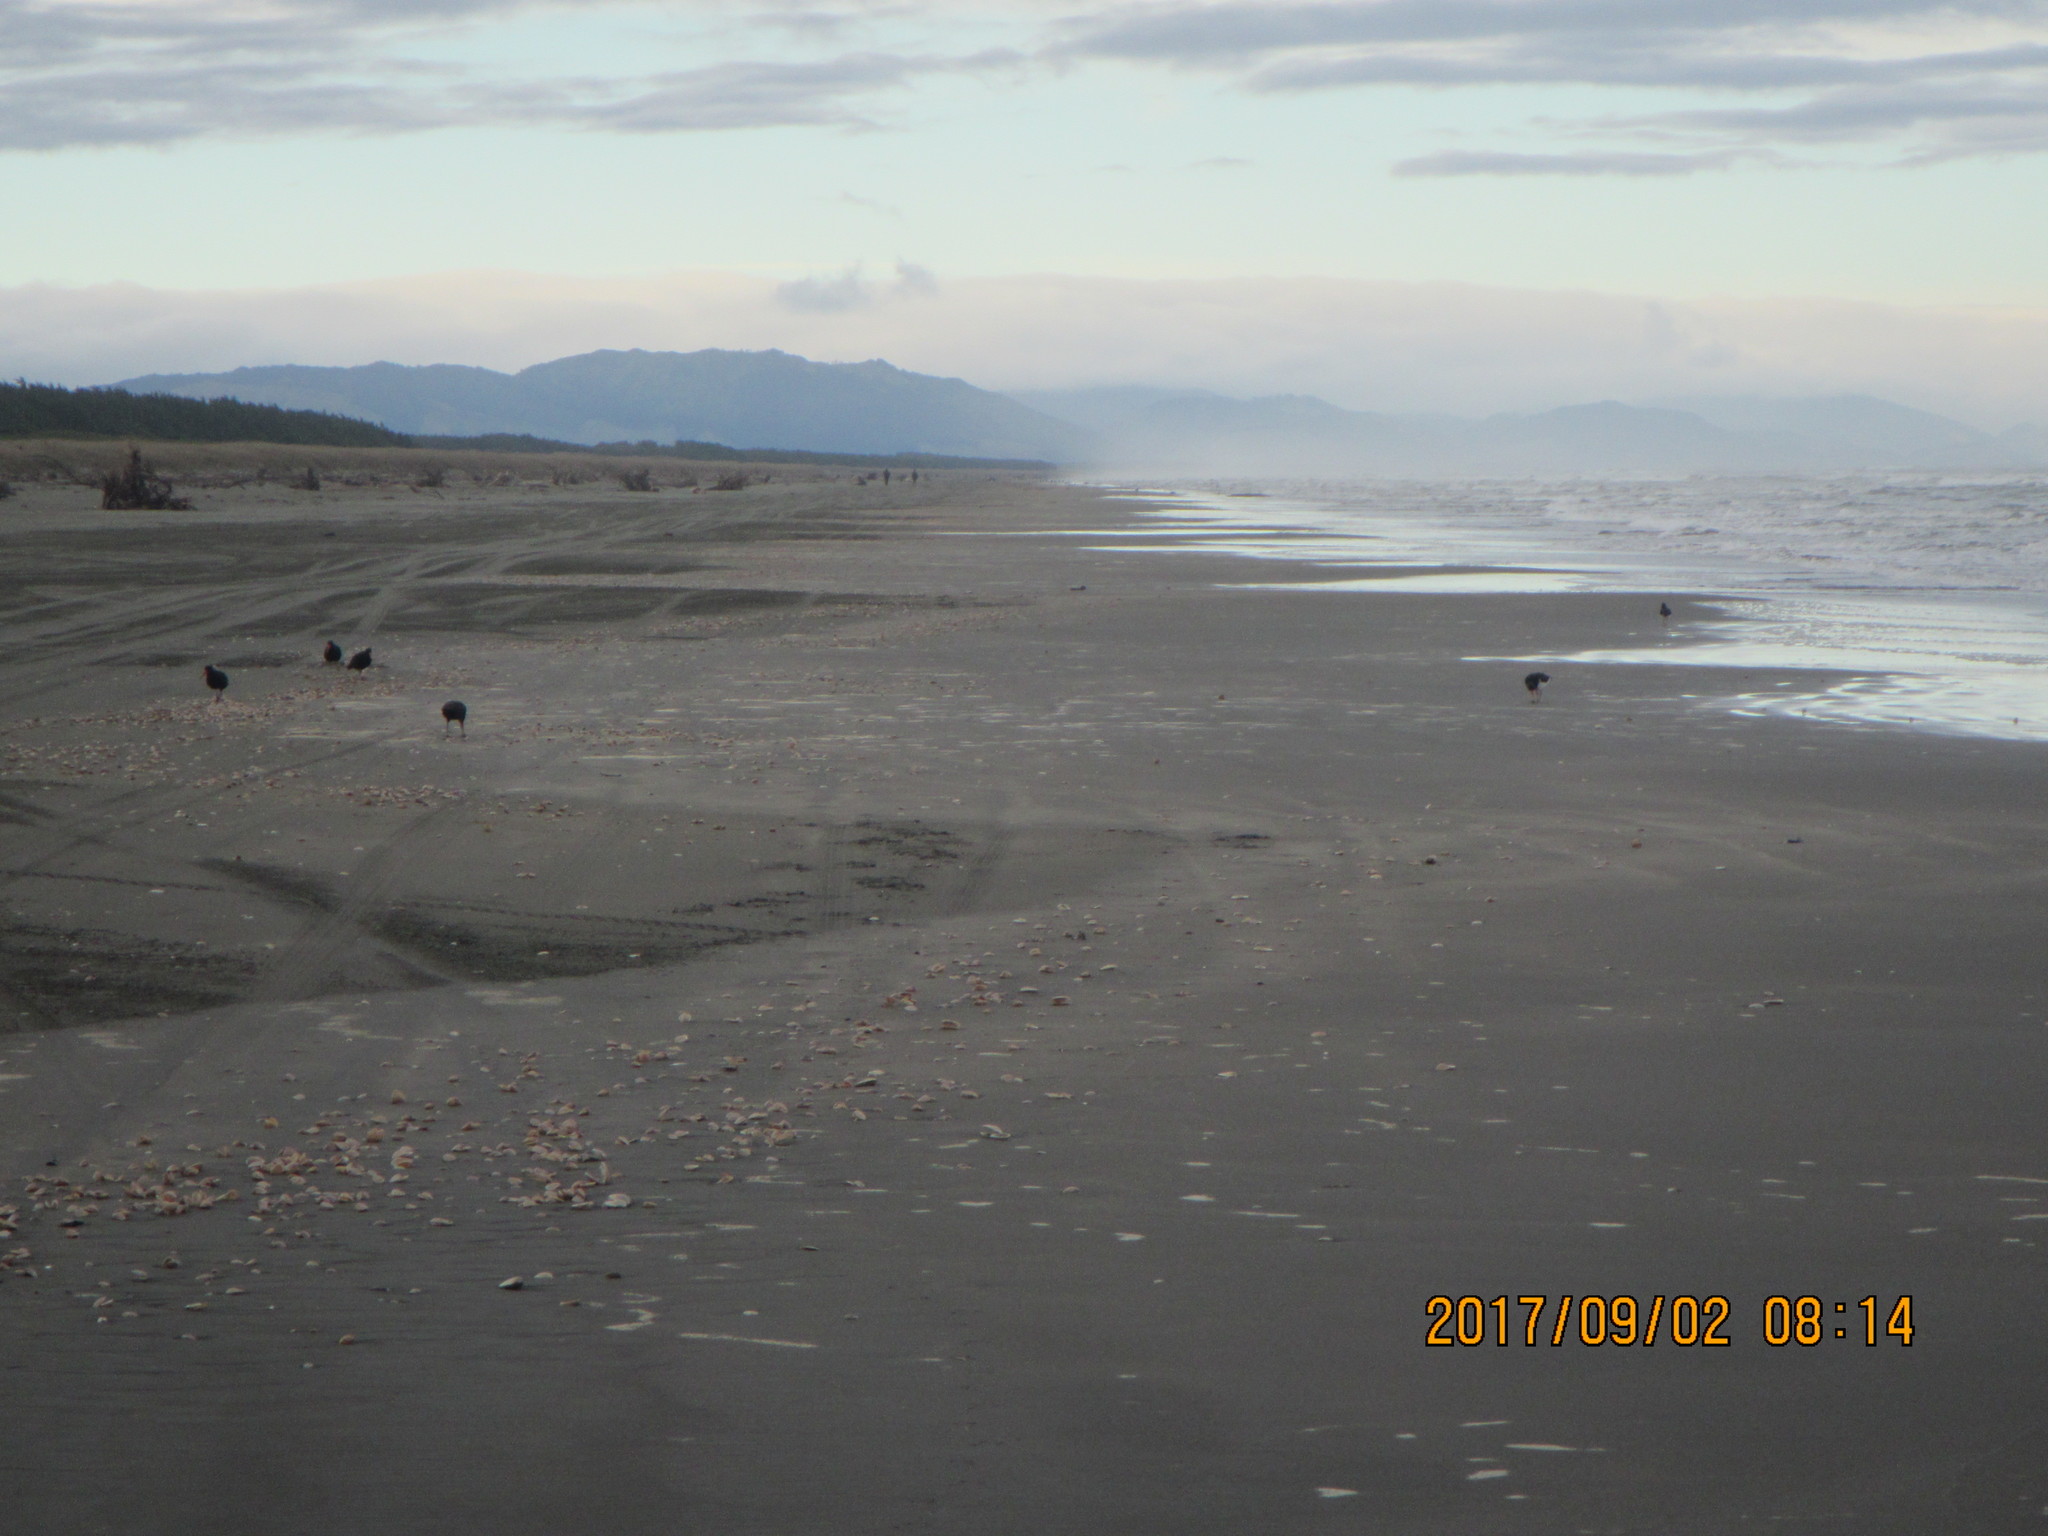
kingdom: Animalia
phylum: Chordata
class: Aves
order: Charadriiformes
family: Haematopodidae
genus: Haematopus
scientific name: Haematopus unicolor
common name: Variable oystercatcher
